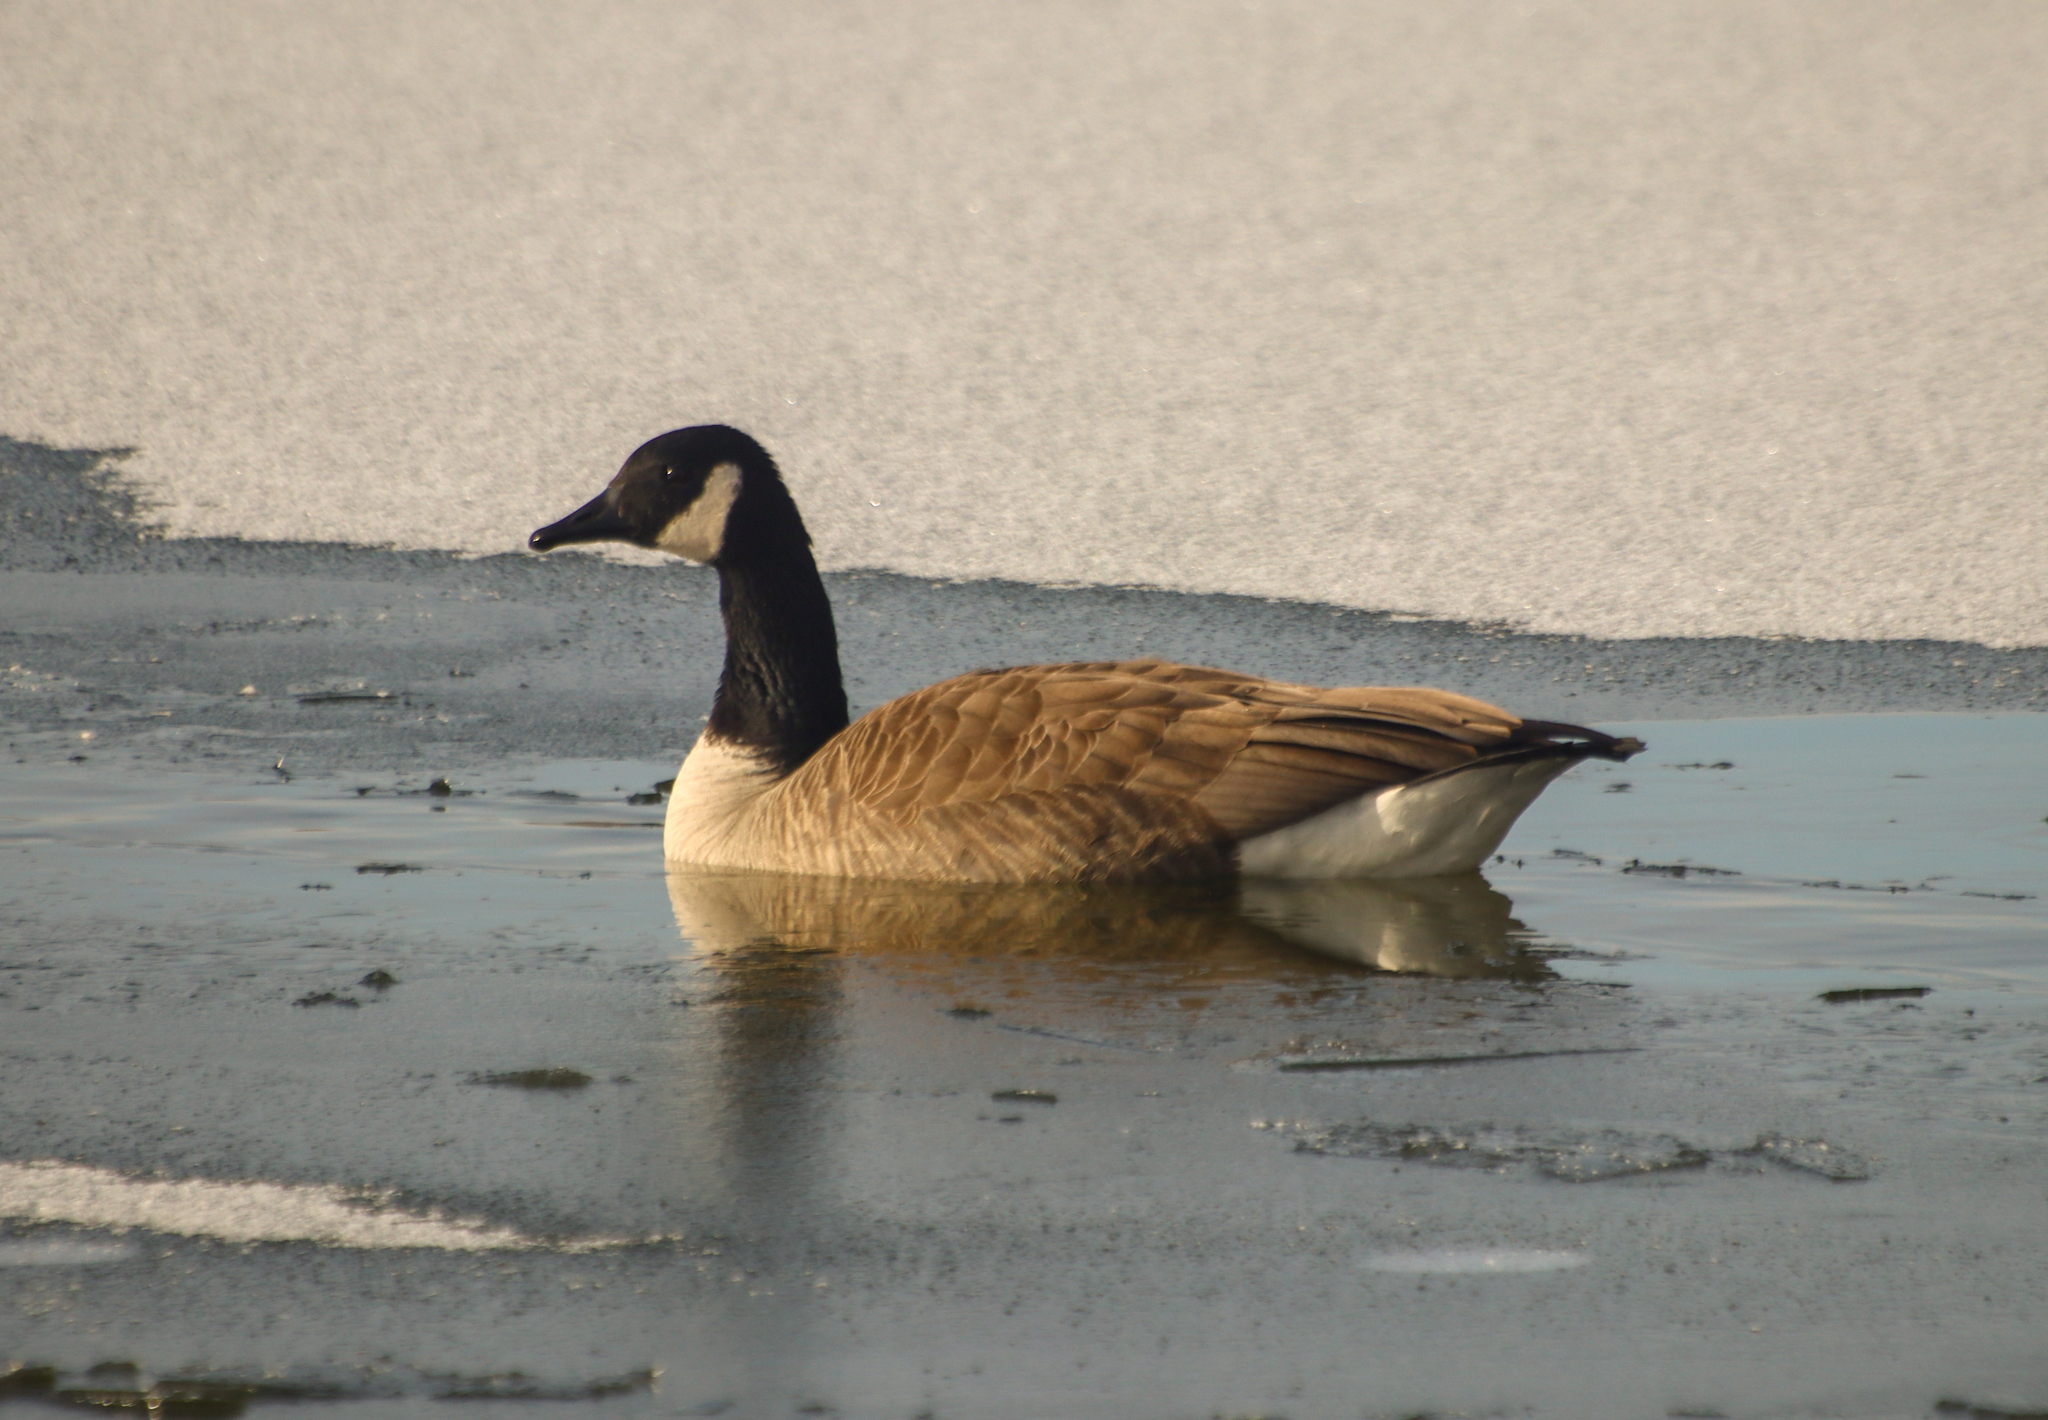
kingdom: Animalia
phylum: Chordata
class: Aves
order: Anseriformes
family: Anatidae
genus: Branta
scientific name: Branta canadensis
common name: Canada goose
